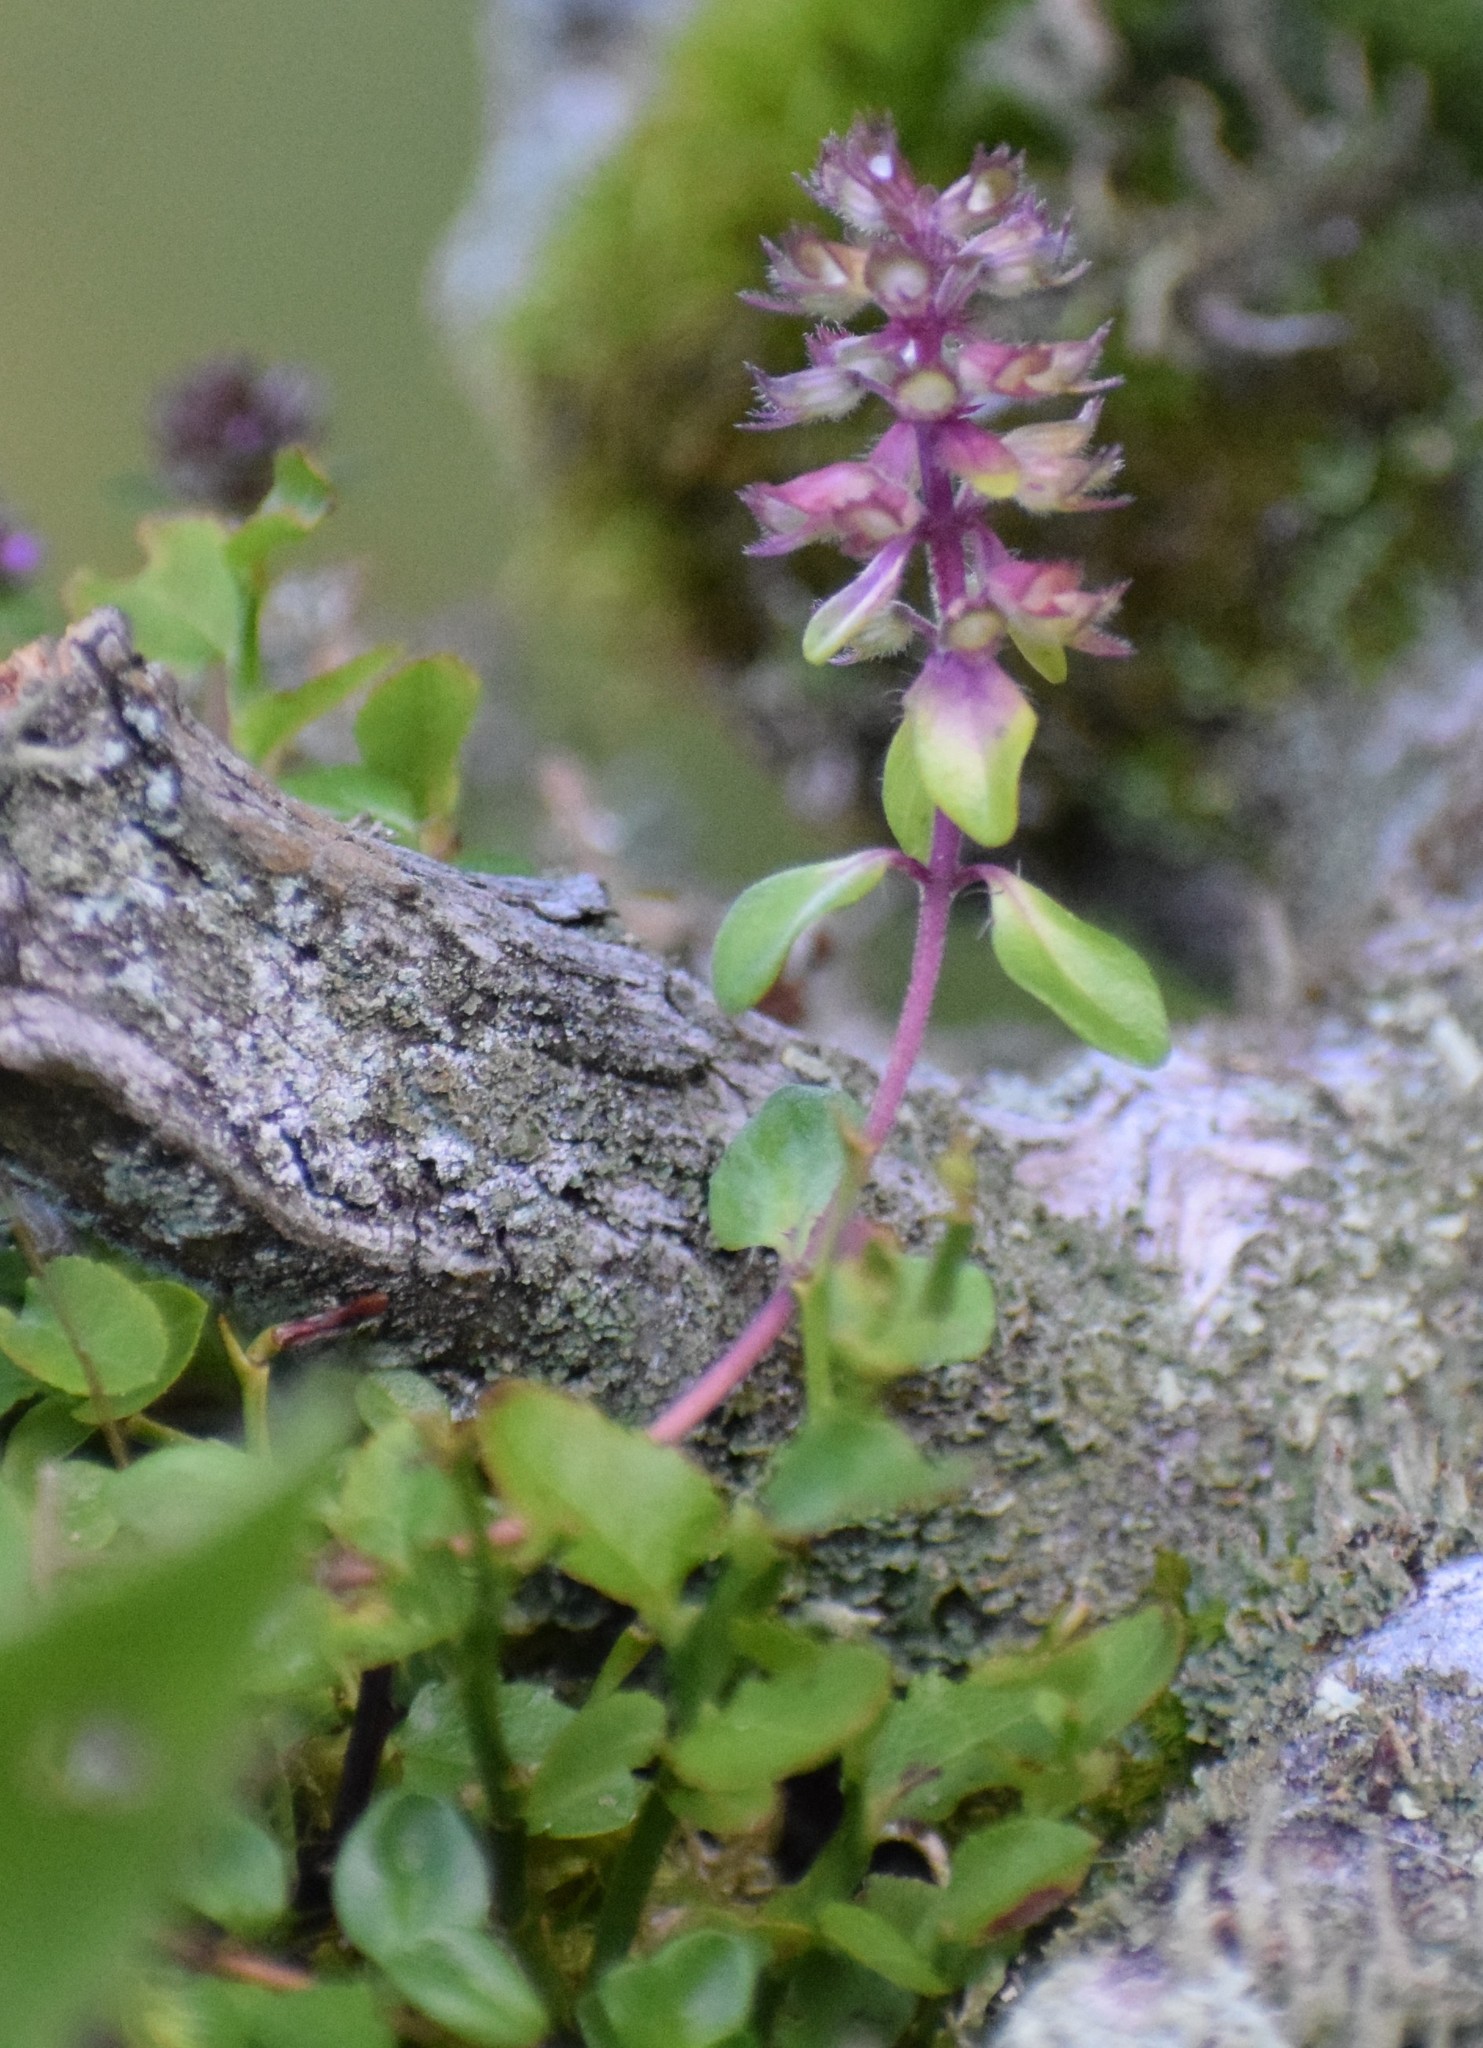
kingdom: Plantae
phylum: Tracheophyta
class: Magnoliopsida
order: Lamiales
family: Lamiaceae
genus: Thymus
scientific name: Thymus pulegioides
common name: Large thyme
